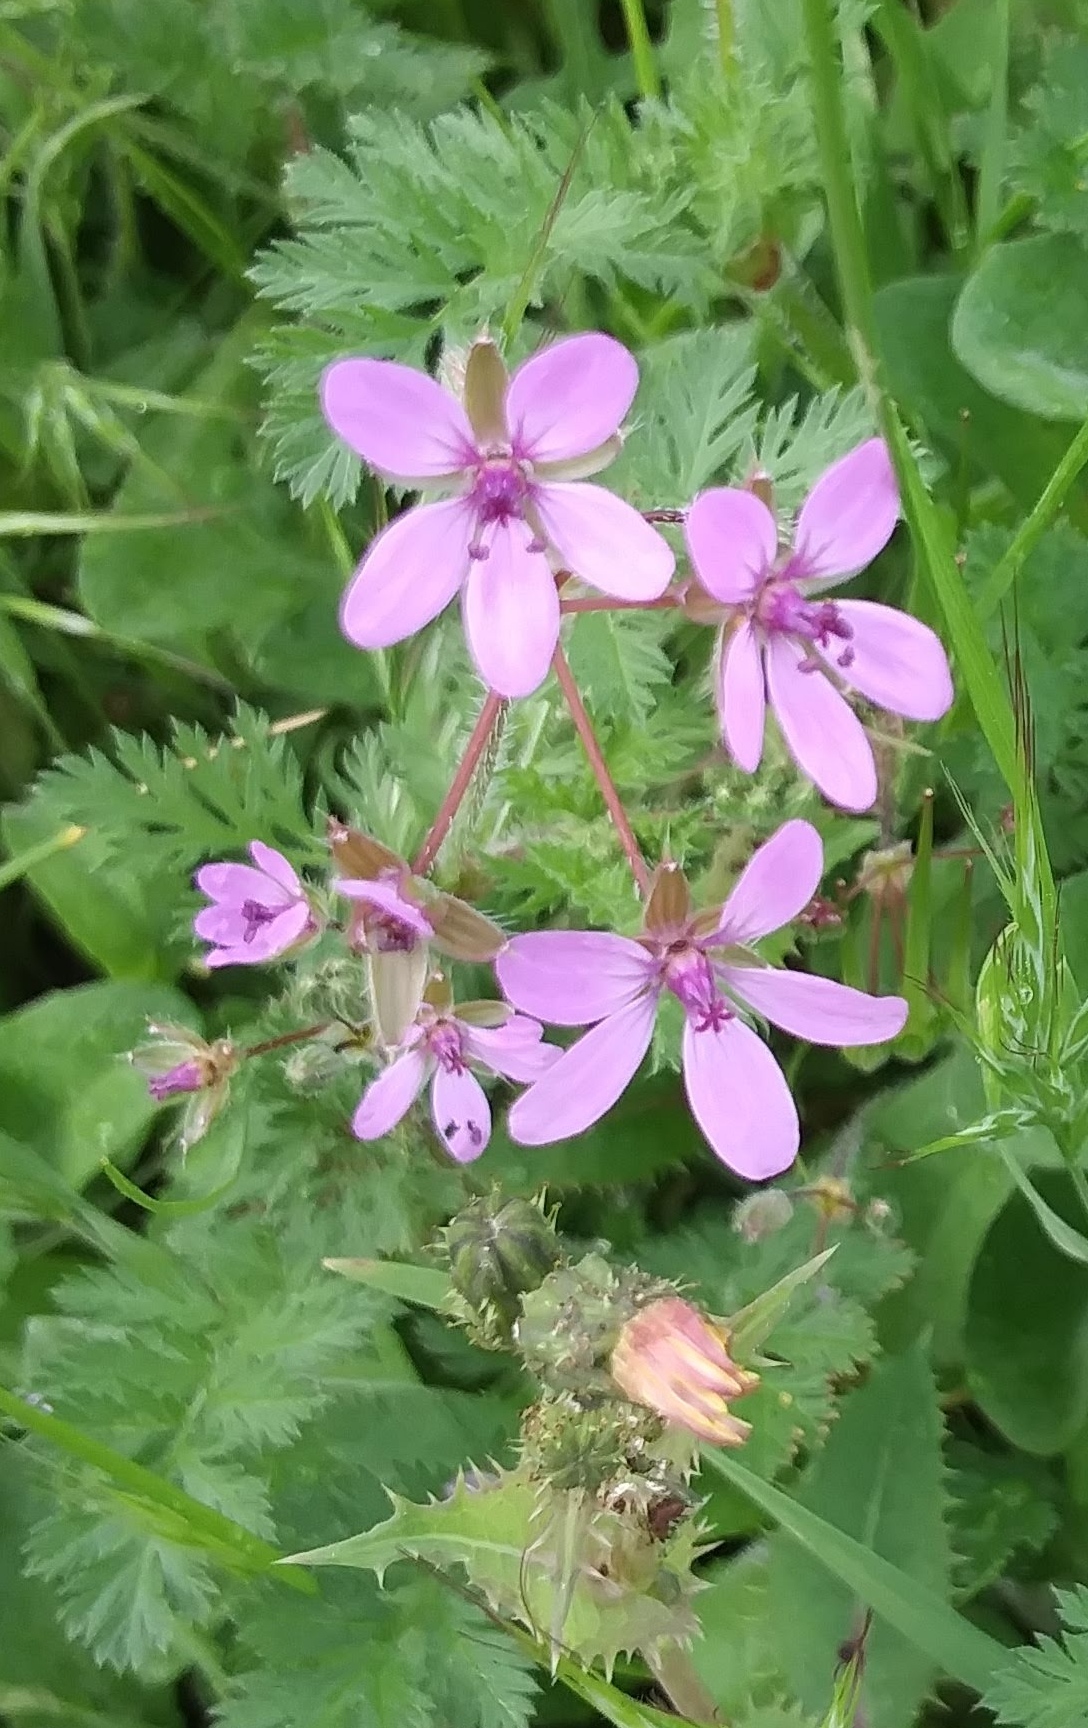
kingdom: Plantae
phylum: Tracheophyta
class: Magnoliopsida
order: Geraniales
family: Geraniaceae
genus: Erodium
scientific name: Erodium cicutarium
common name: Common stork's-bill
